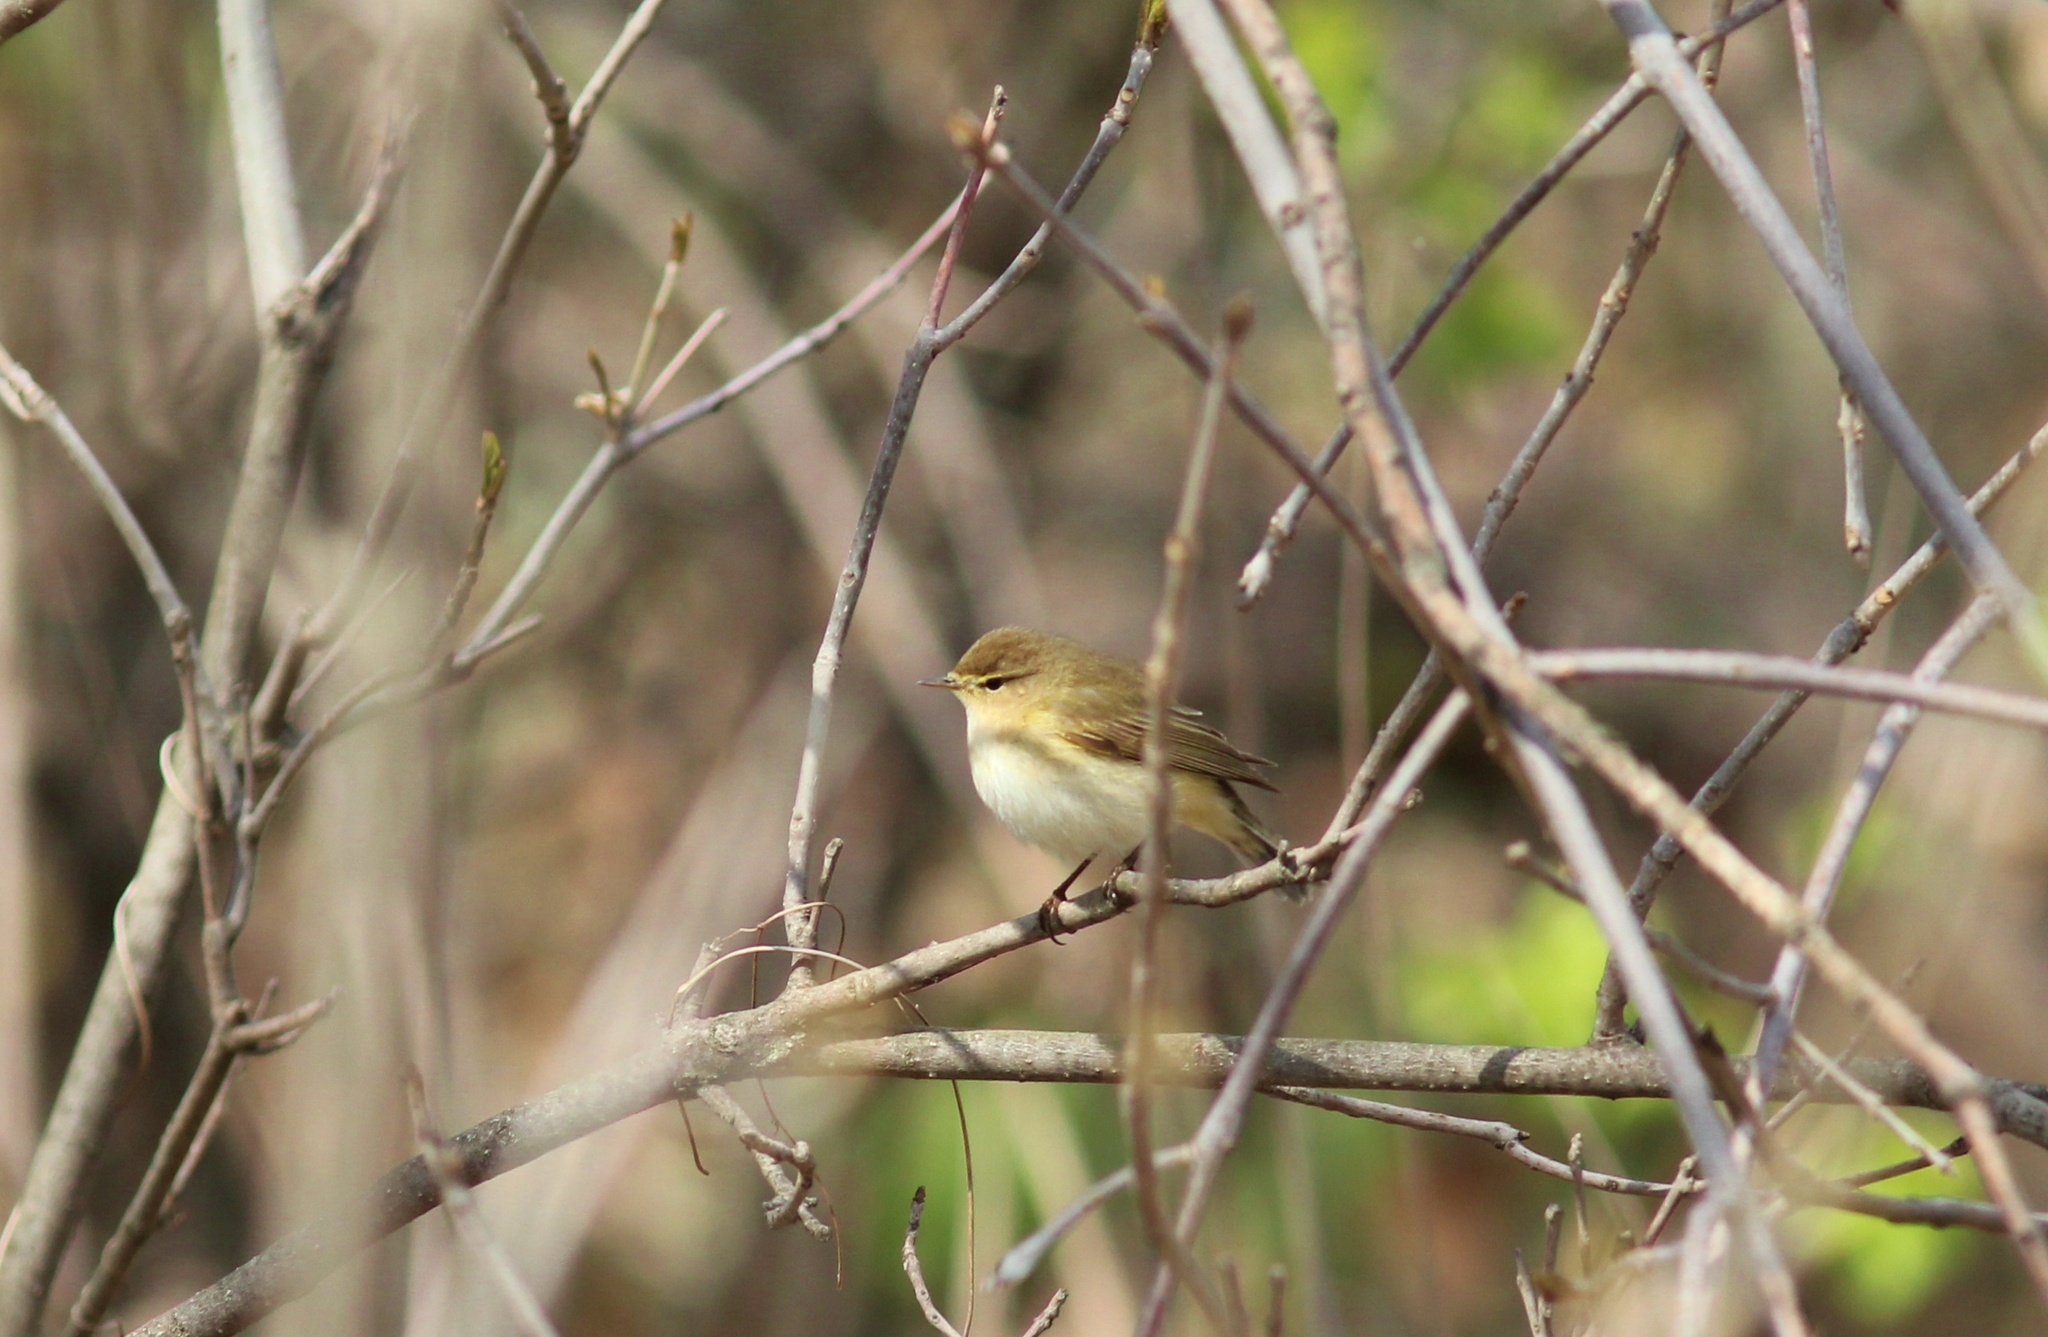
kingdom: Animalia
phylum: Chordata
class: Aves
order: Passeriformes
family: Phylloscopidae
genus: Phylloscopus
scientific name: Phylloscopus collybita
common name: Common chiffchaff
